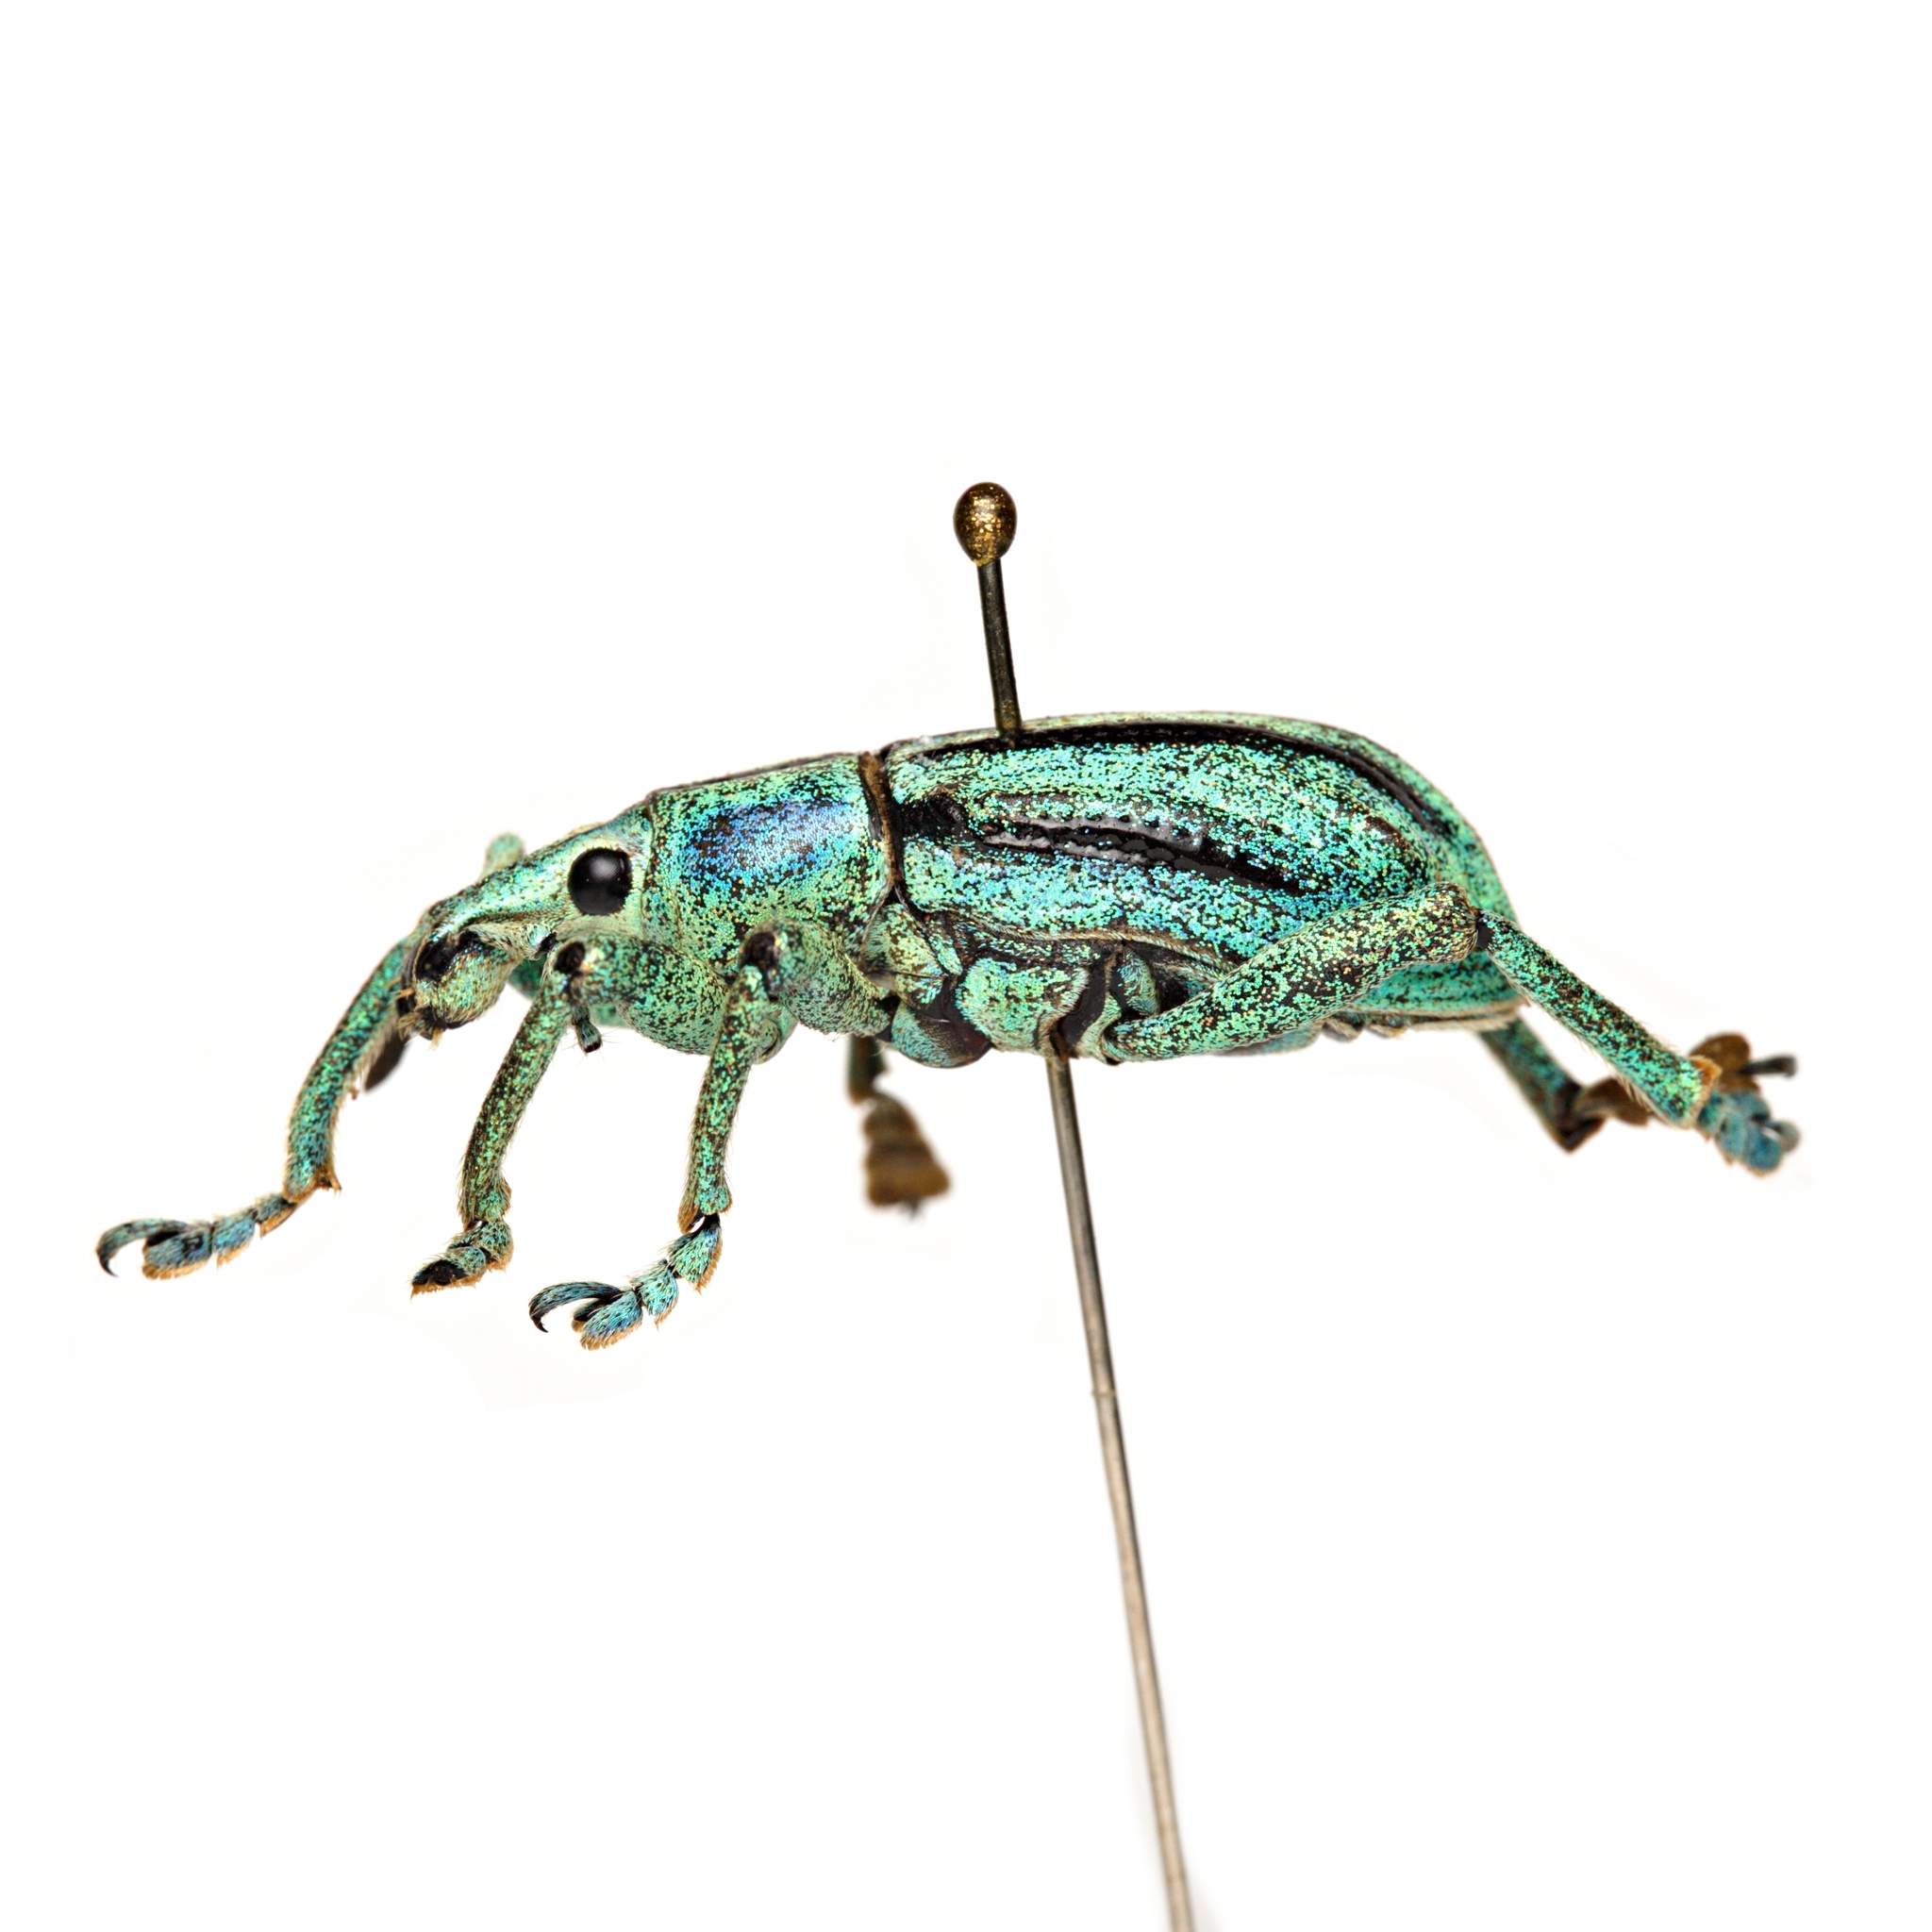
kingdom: Animalia
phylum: Arthropoda
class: Insecta
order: Coleoptera
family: Curculionidae
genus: Eupholus
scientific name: Eupholus cuvierii
